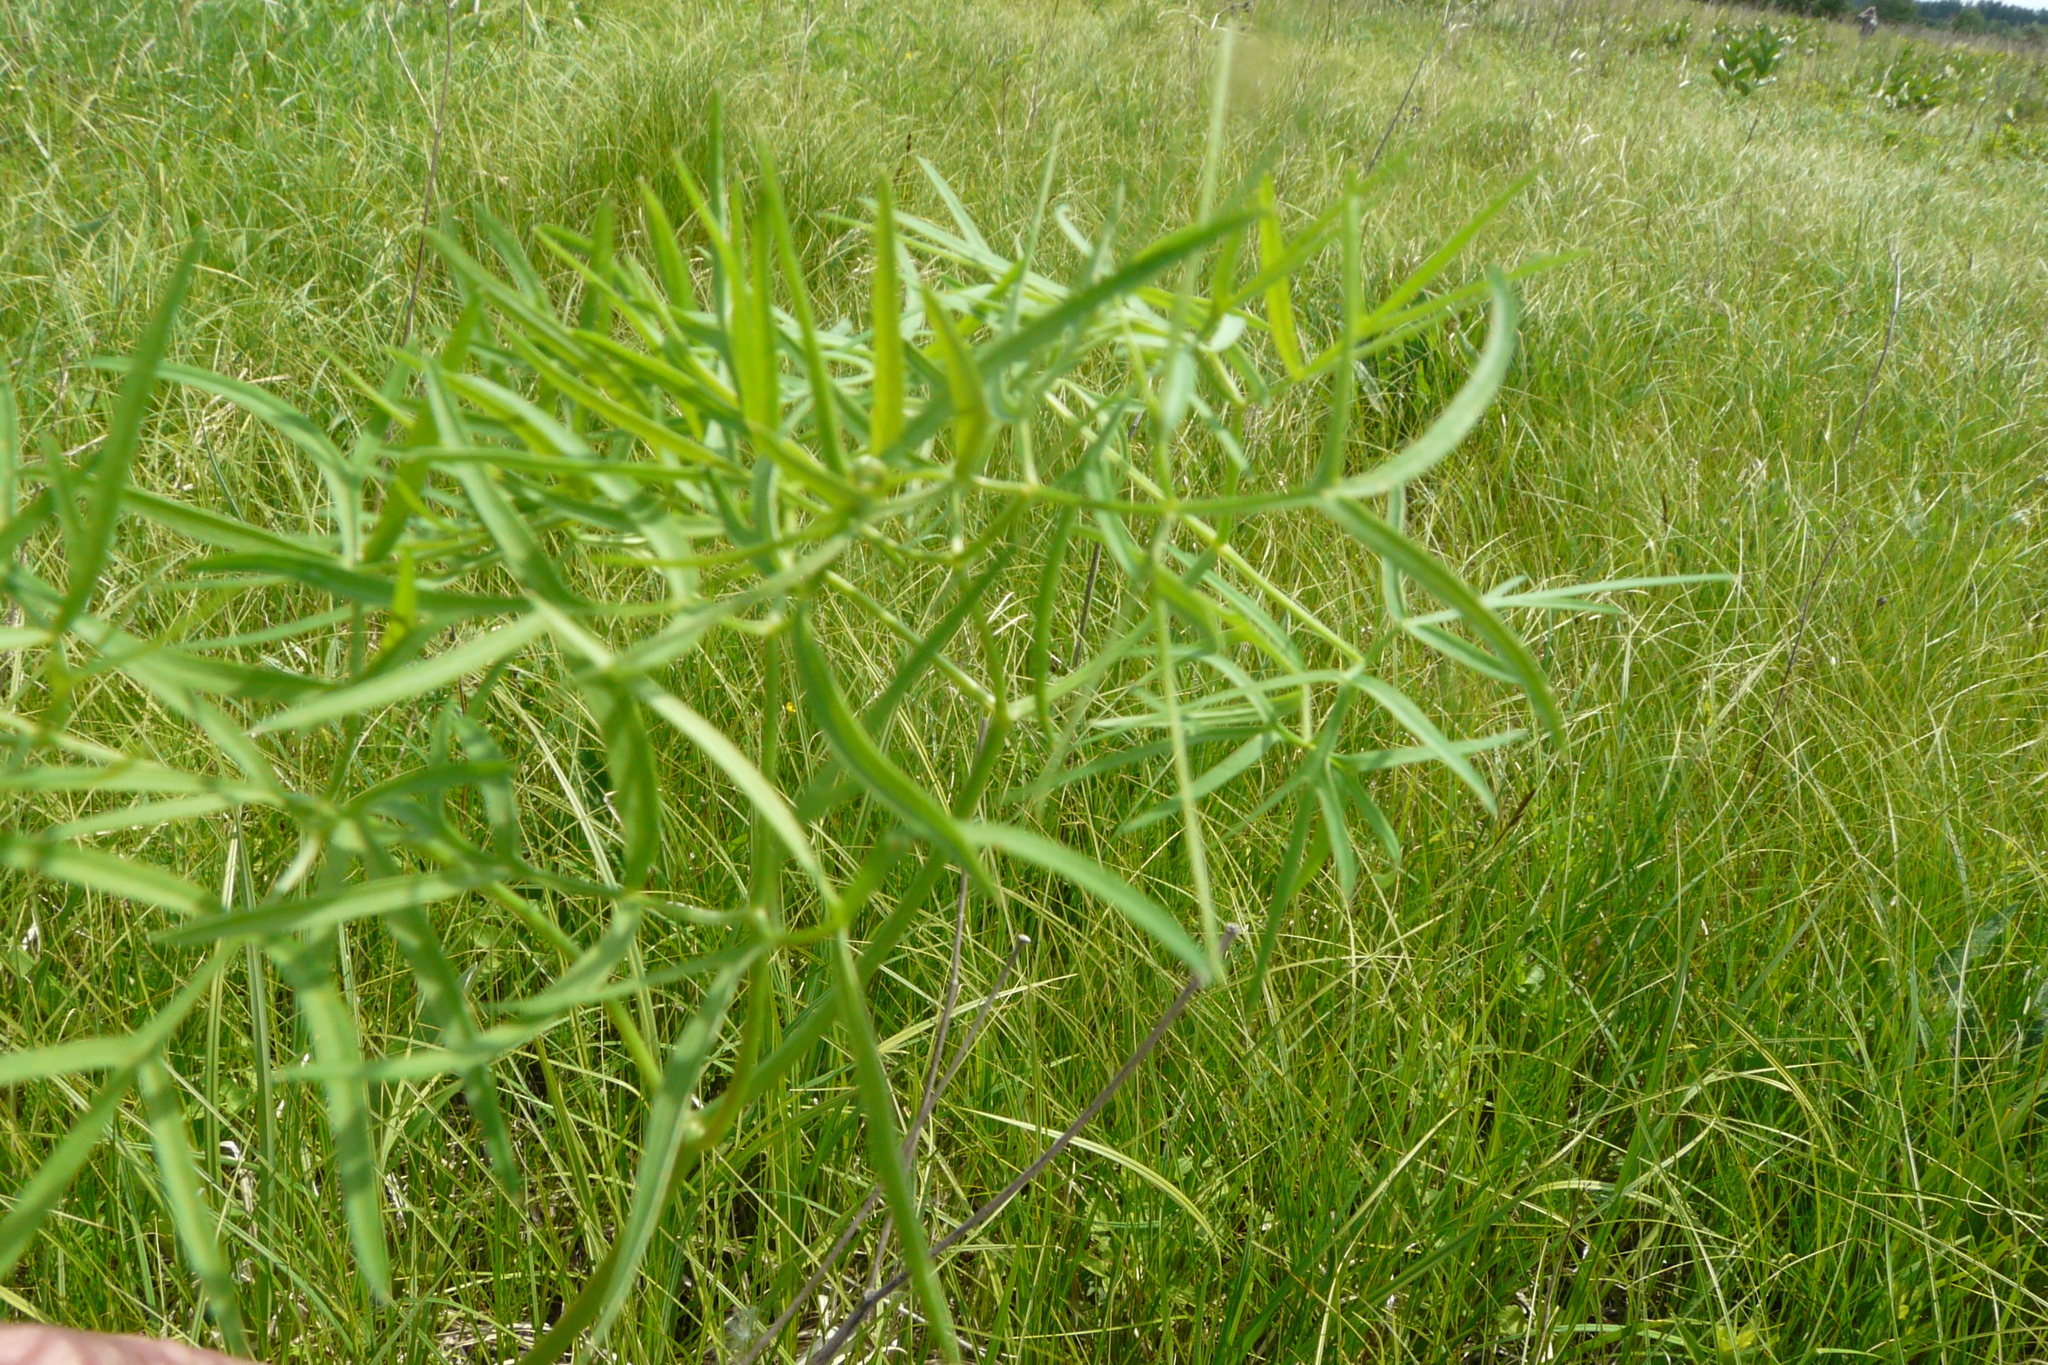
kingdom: Plantae
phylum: Tracheophyta
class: Magnoliopsida
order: Apiales
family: Apiaceae
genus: Cenolophium
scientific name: Cenolophium fischeri
